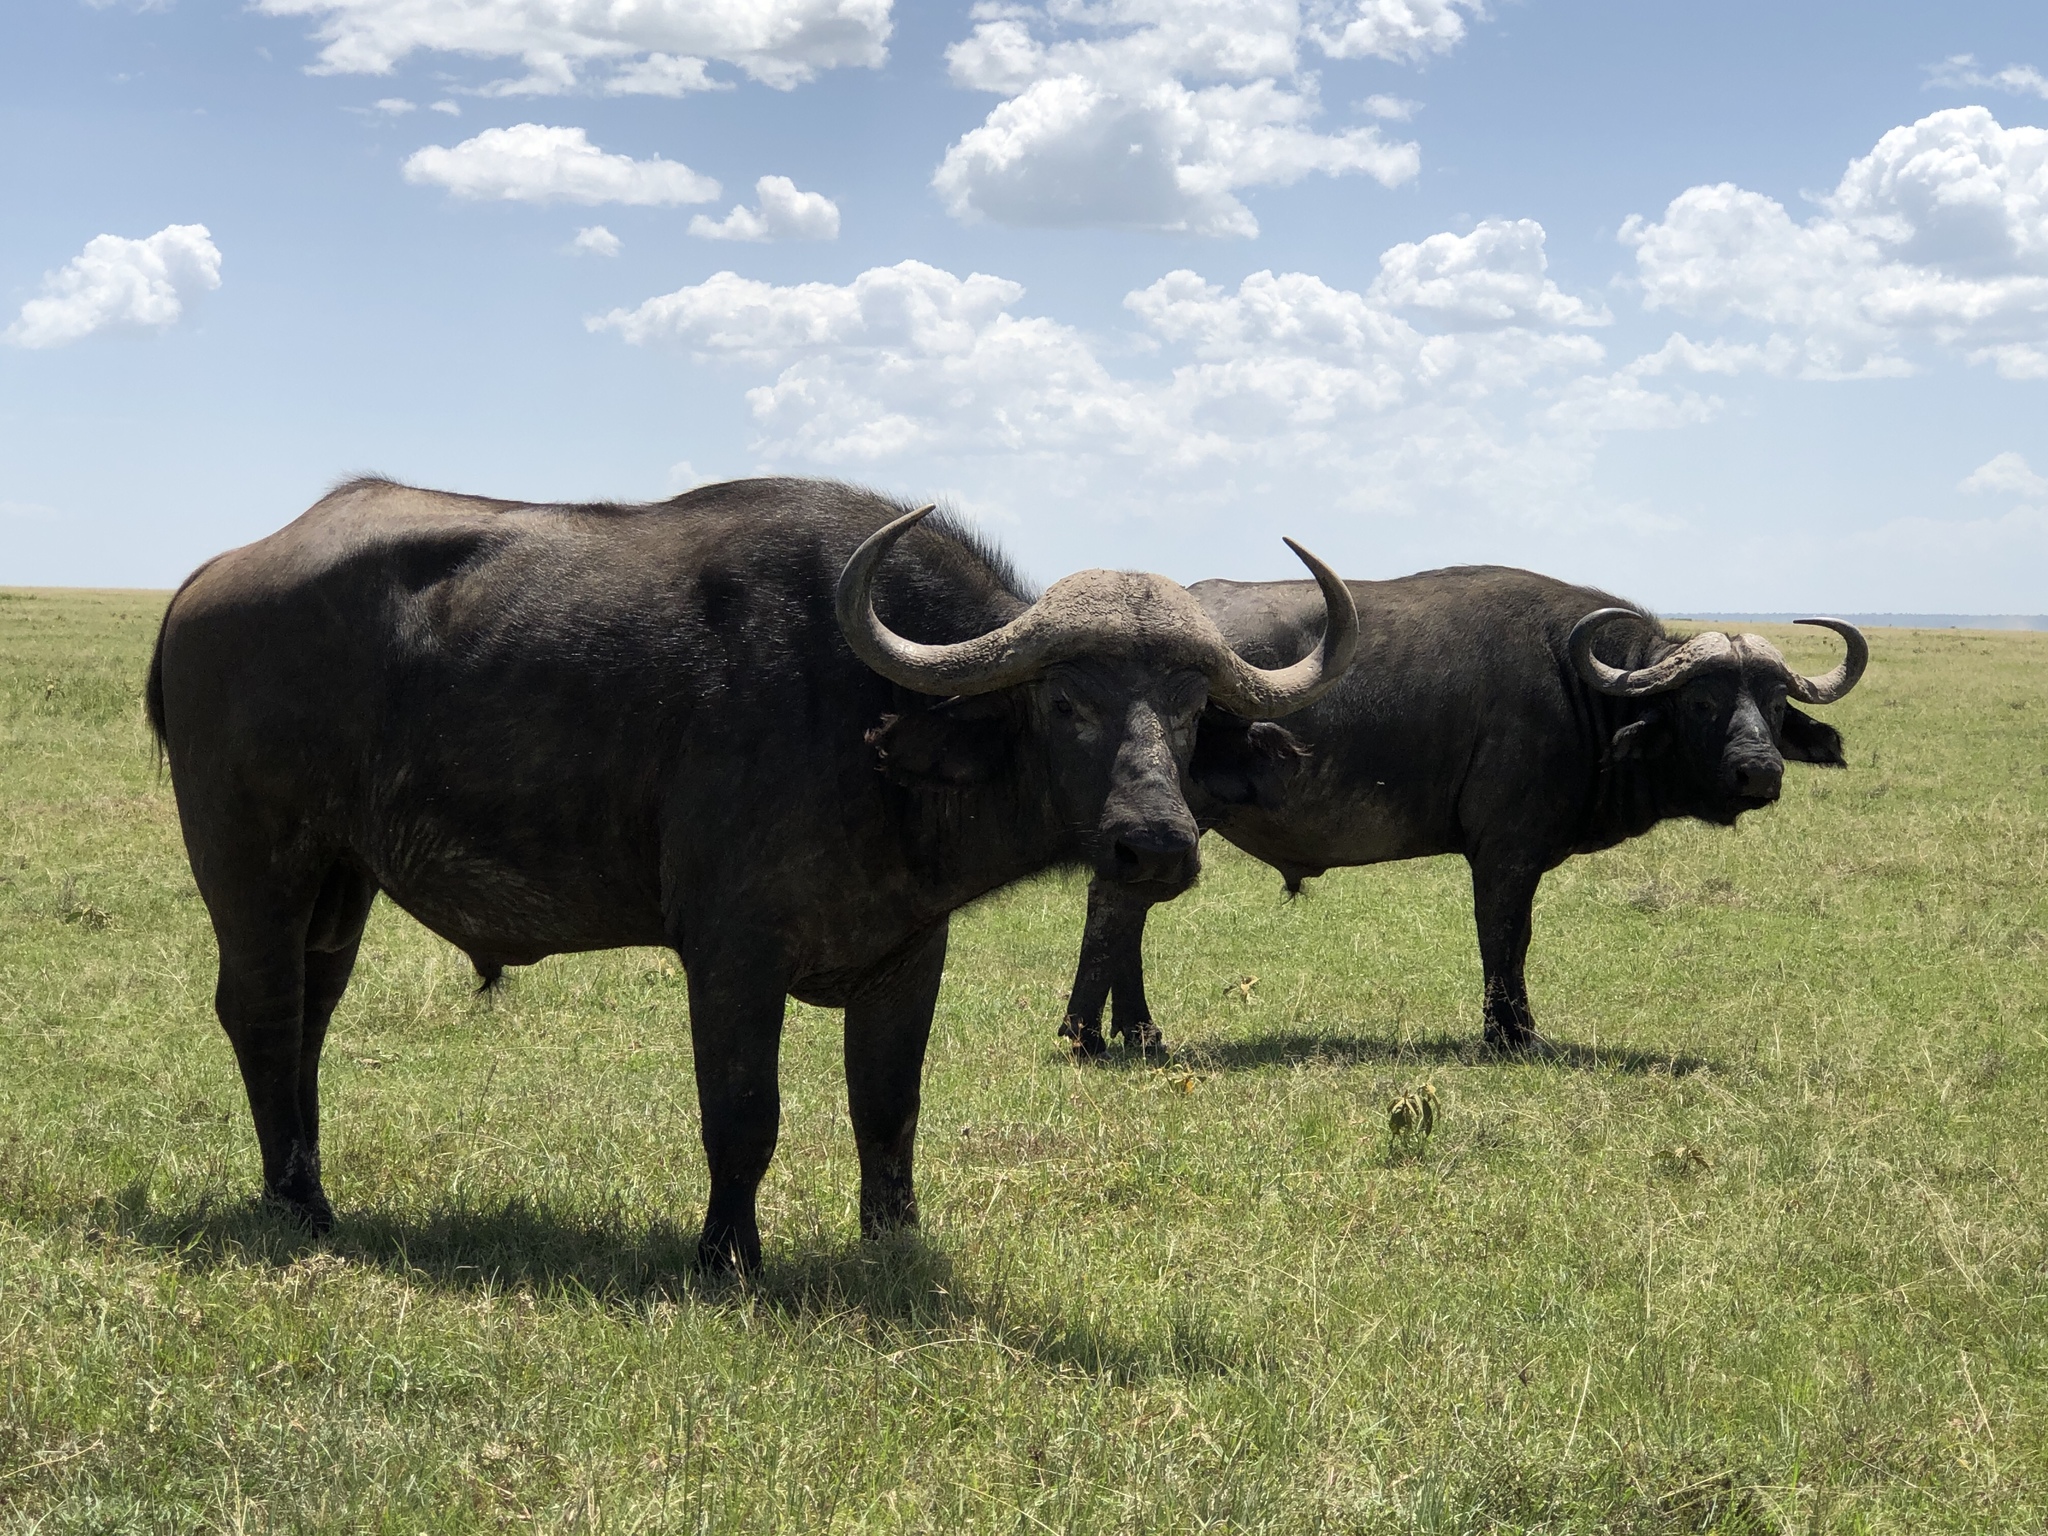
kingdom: Animalia
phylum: Chordata
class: Mammalia
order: Artiodactyla
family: Bovidae
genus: Syncerus
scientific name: Syncerus caffer
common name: African buffalo
